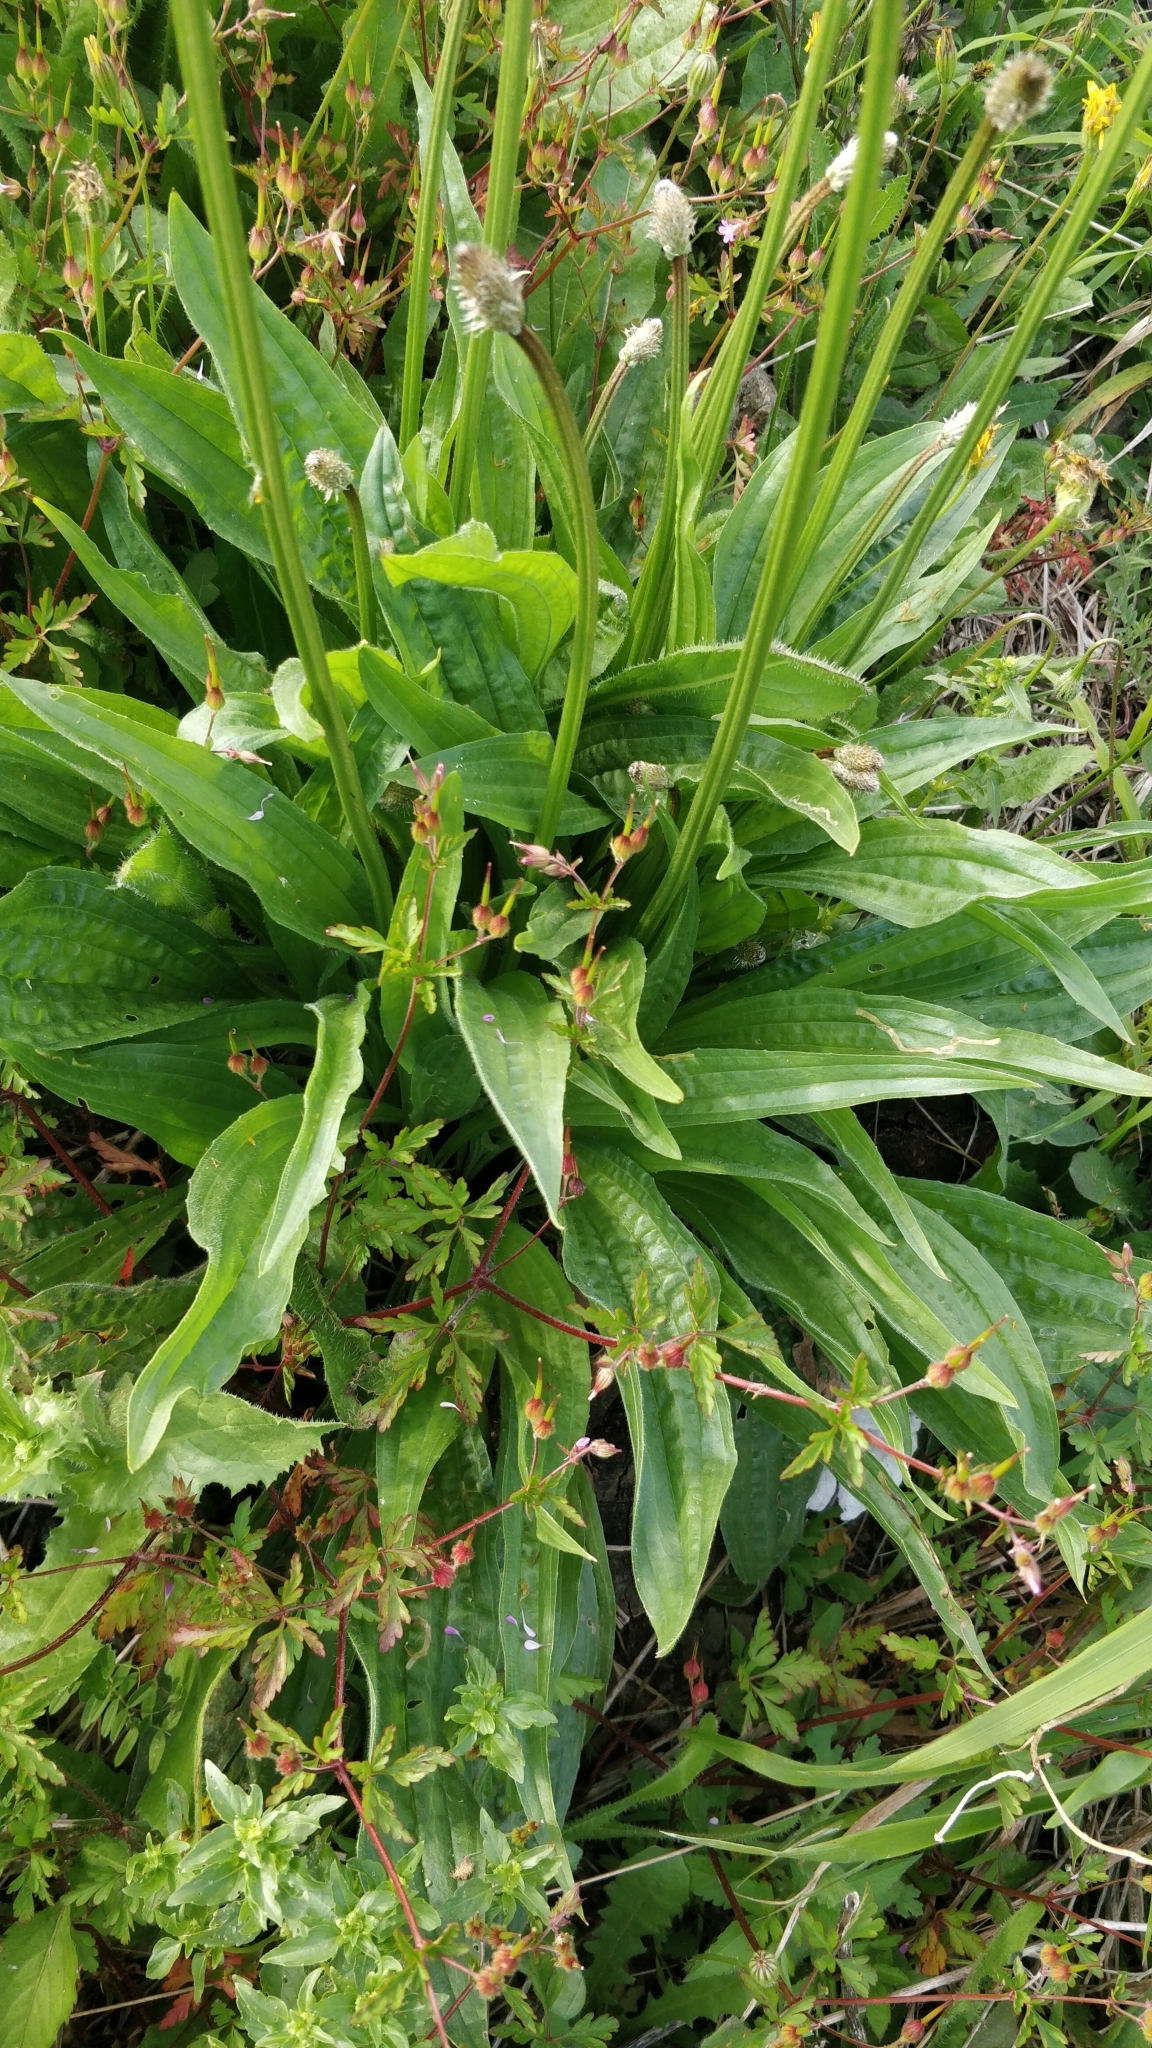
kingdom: Plantae
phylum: Tracheophyta
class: Magnoliopsida
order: Lamiales
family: Plantaginaceae
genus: Plantago
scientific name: Plantago lanceolata
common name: Ribwort plantain
